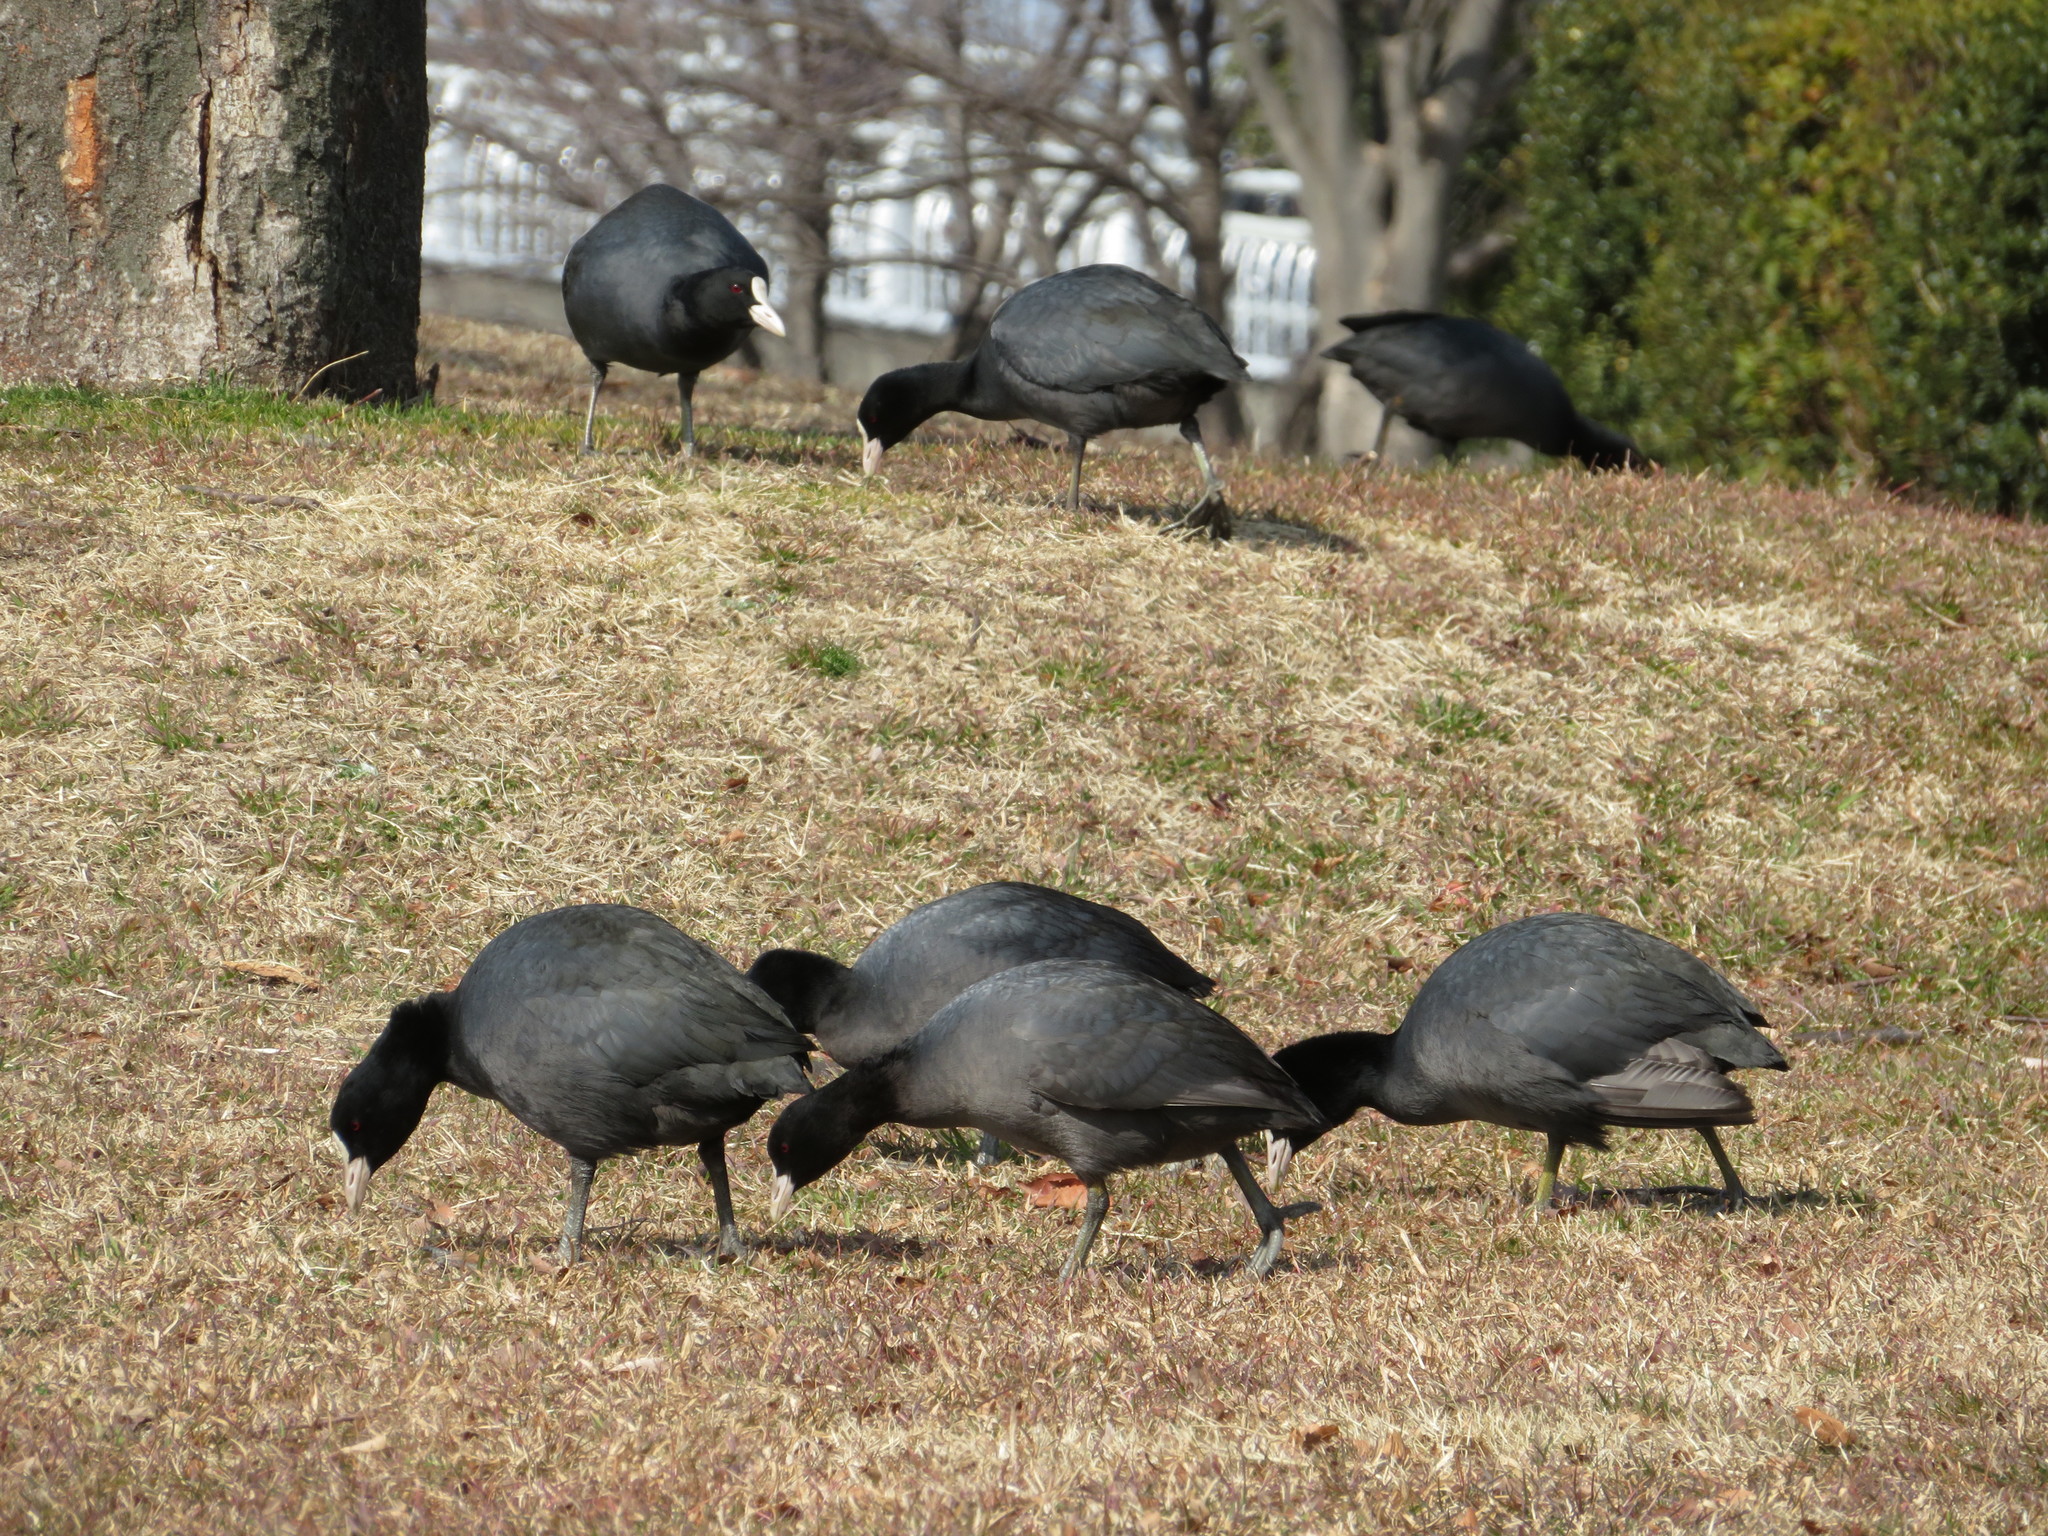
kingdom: Animalia
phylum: Chordata
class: Aves
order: Gruiformes
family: Rallidae
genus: Fulica
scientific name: Fulica atra
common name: Eurasian coot
